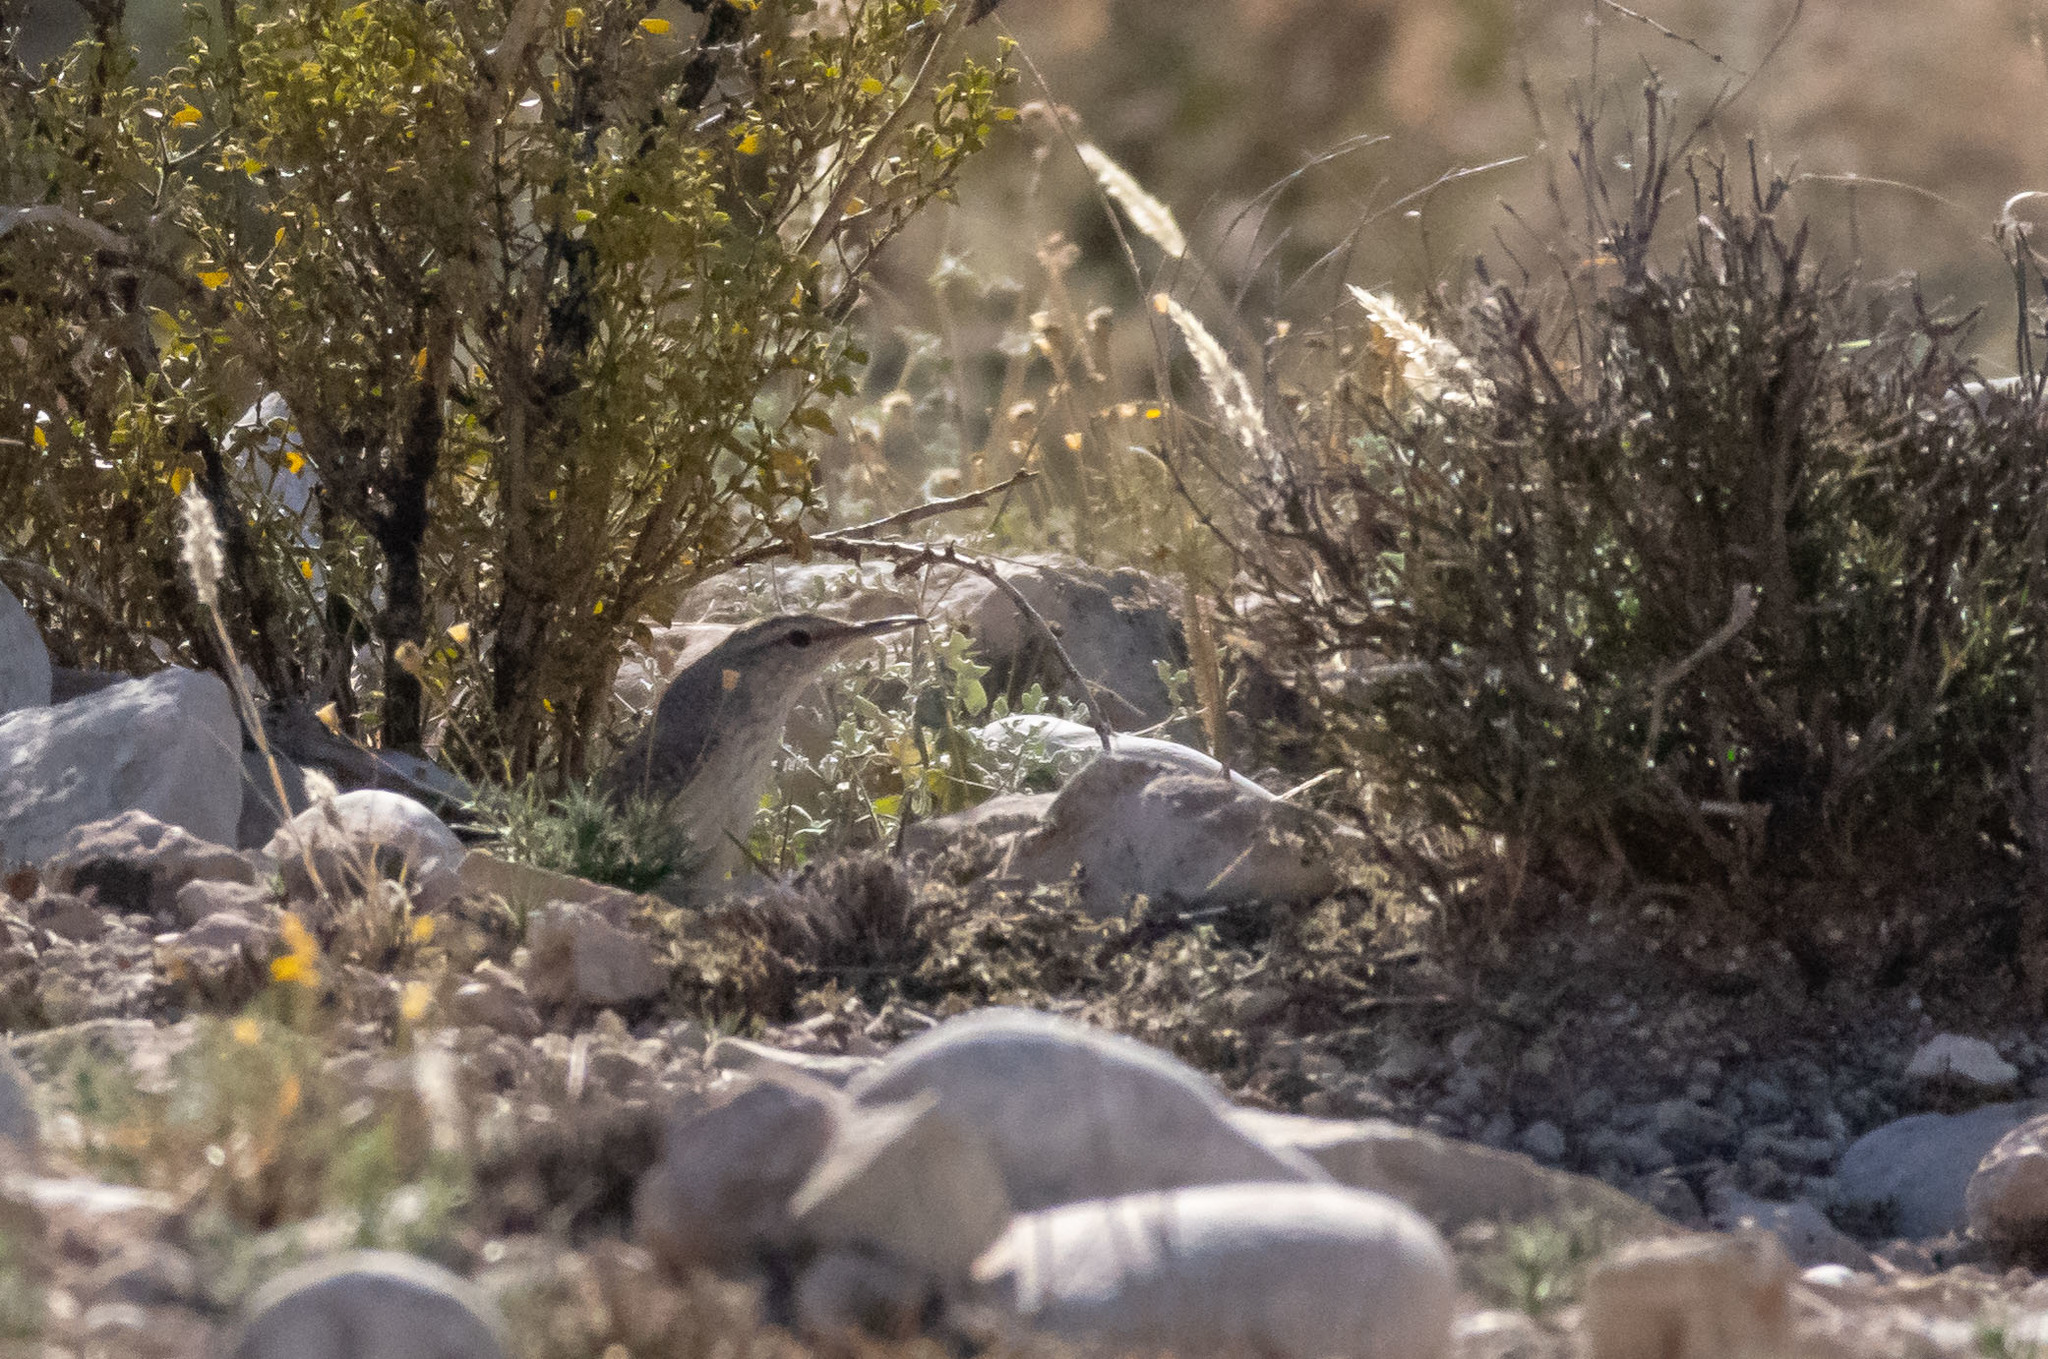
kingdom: Animalia
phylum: Chordata
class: Aves
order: Passeriformes
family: Troglodytidae
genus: Salpinctes
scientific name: Salpinctes obsoletus
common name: Rock wren
